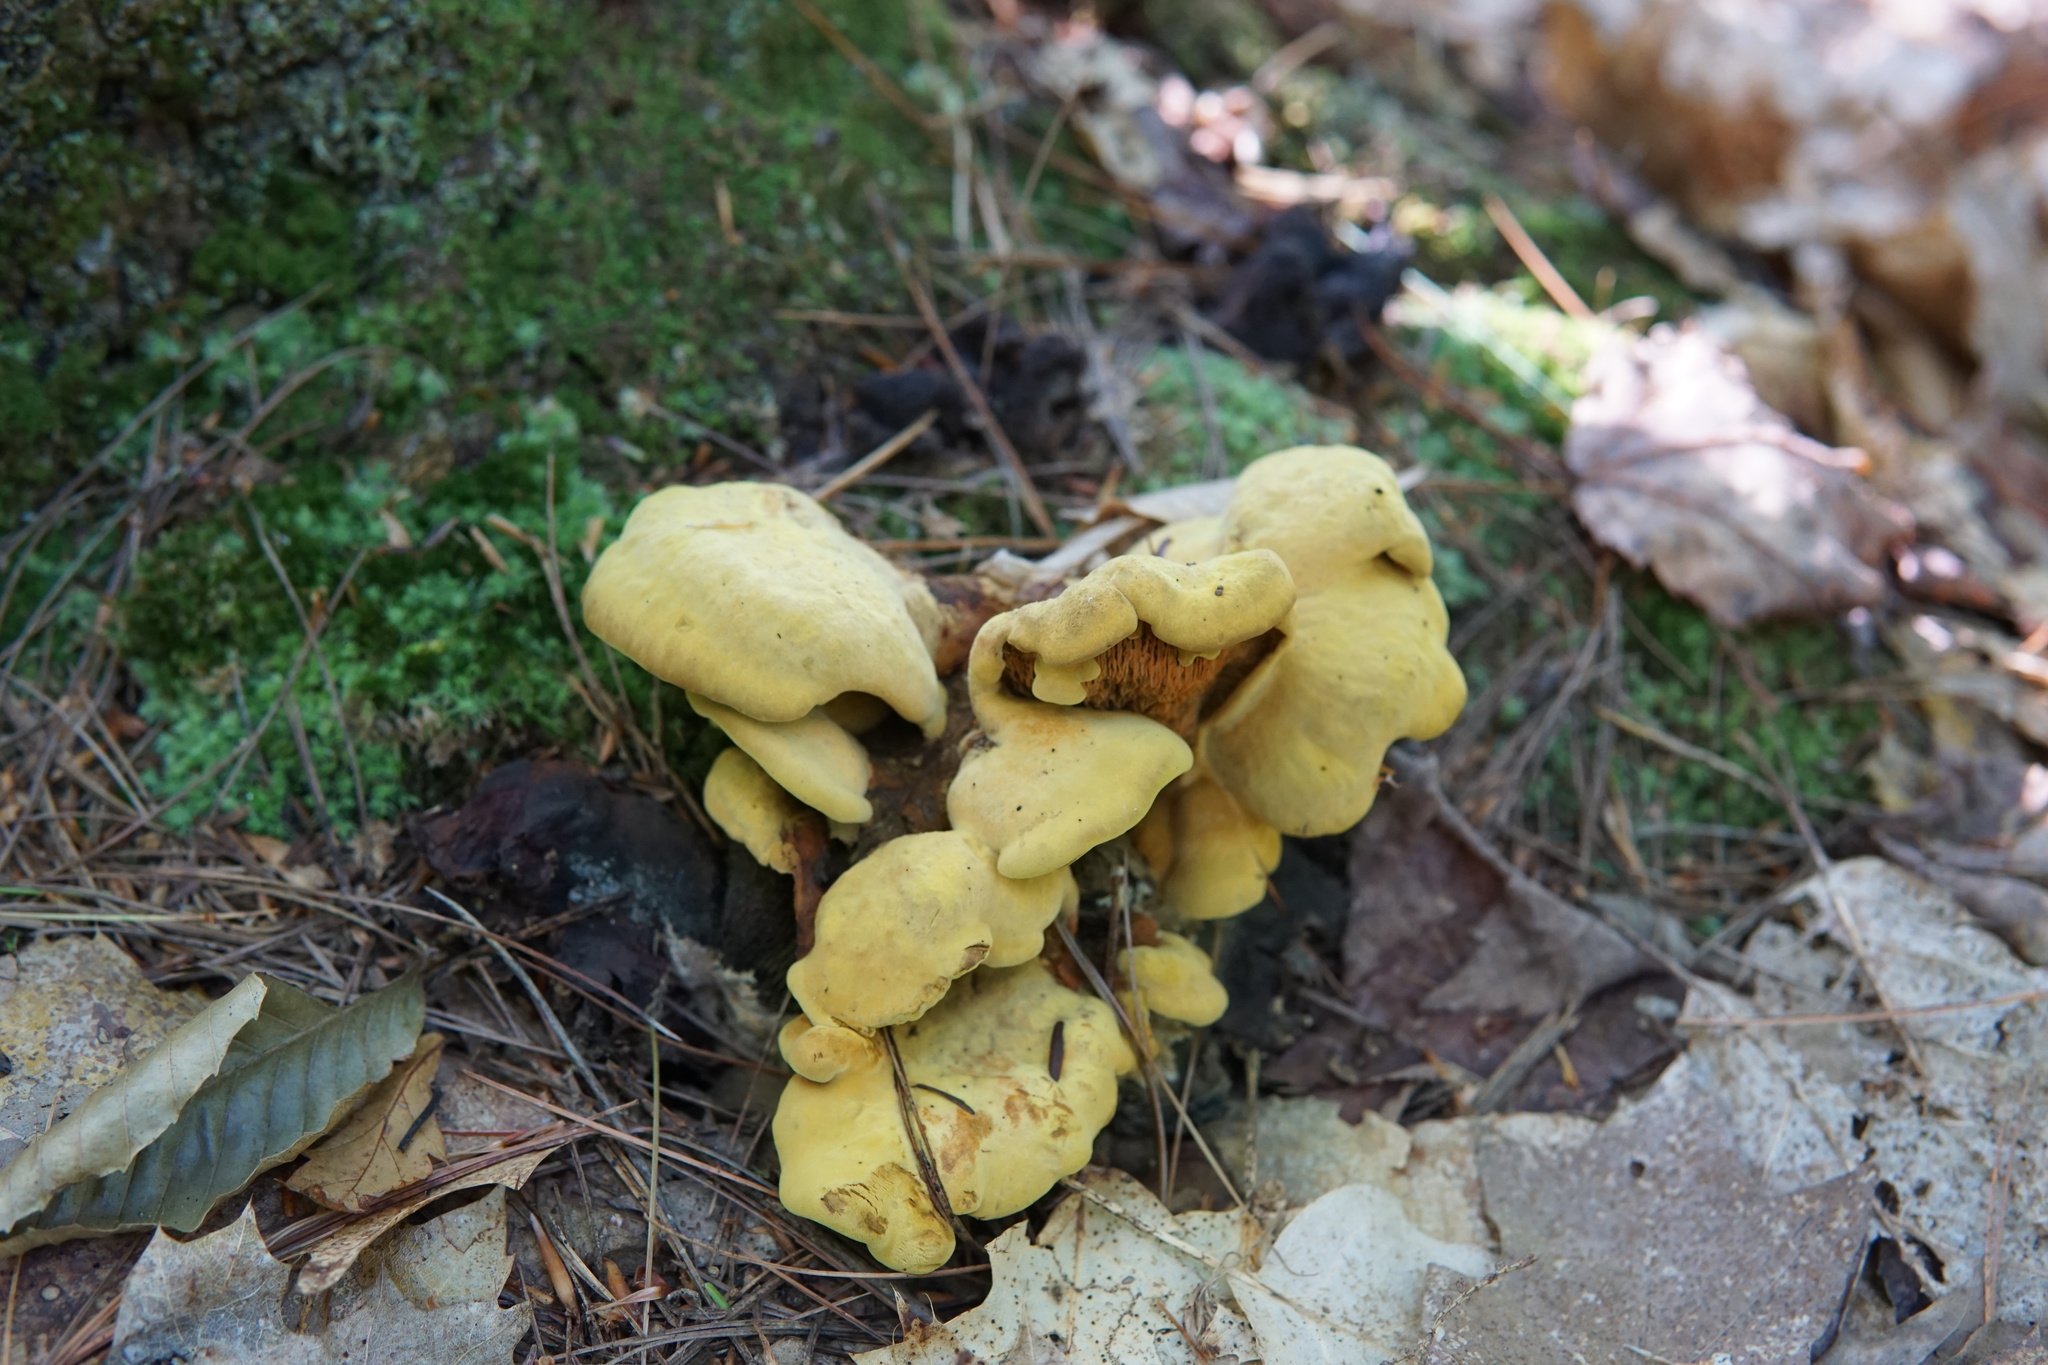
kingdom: Fungi
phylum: Basidiomycota
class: Agaricomycetes
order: Boletales
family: Paxillaceae
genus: Meiorganum
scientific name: Meiorganum curtisii
